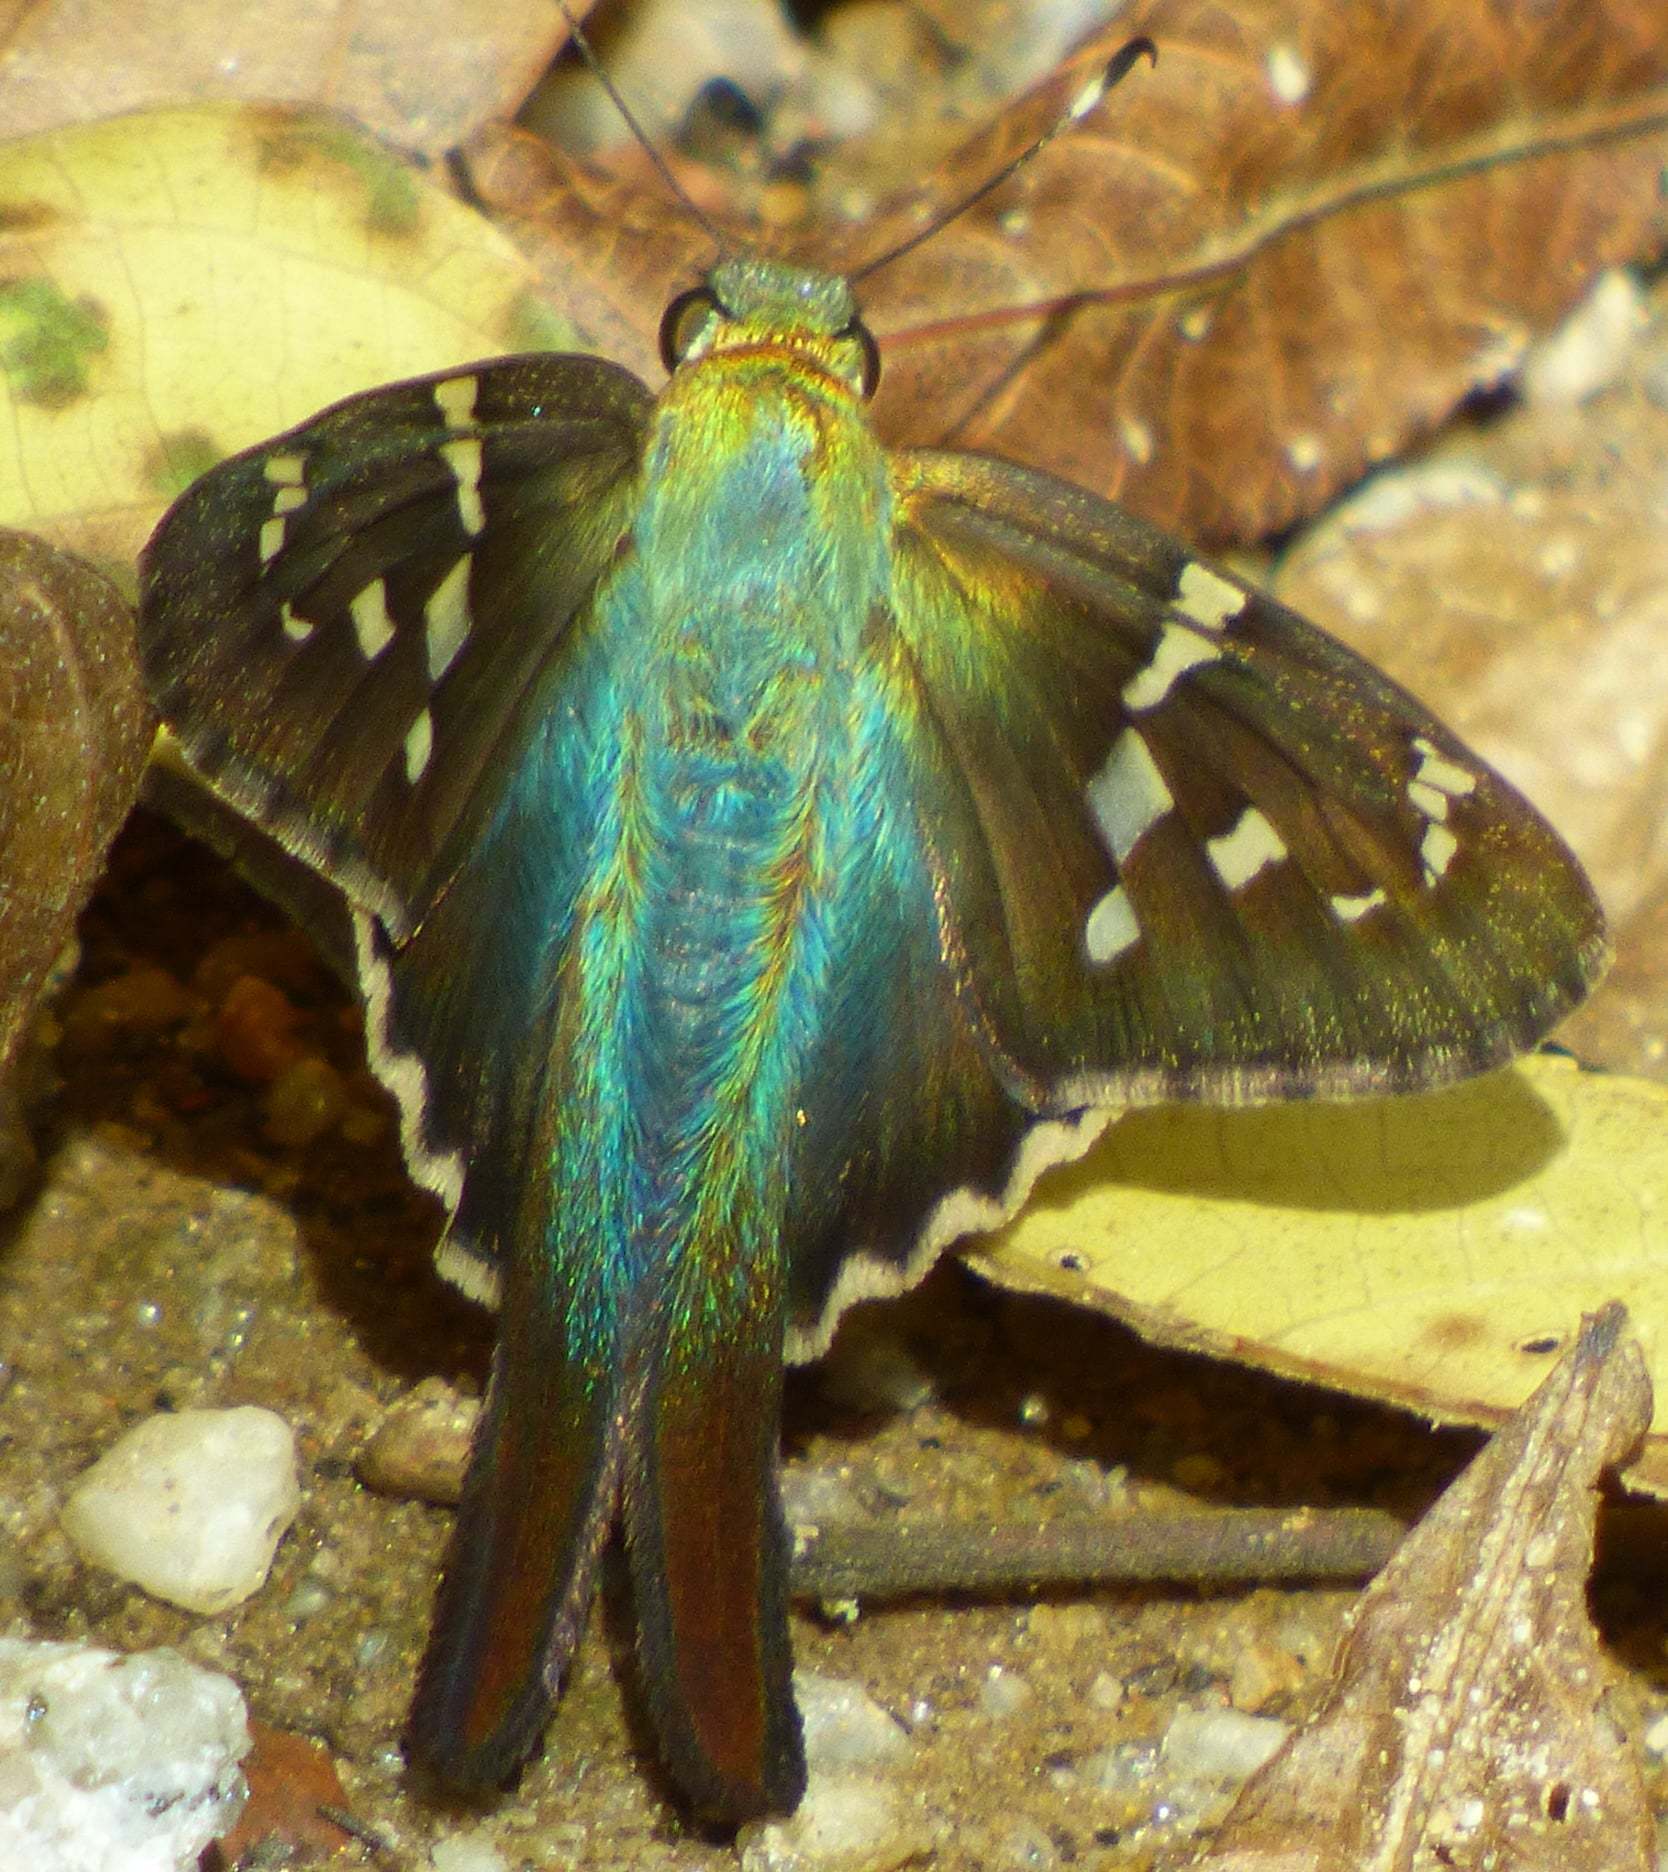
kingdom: Animalia
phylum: Arthropoda
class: Insecta
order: Lepidoptera
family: Hesperiidae
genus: Urbanus
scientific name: Urbanus proteus
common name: Long-tailed skipper
